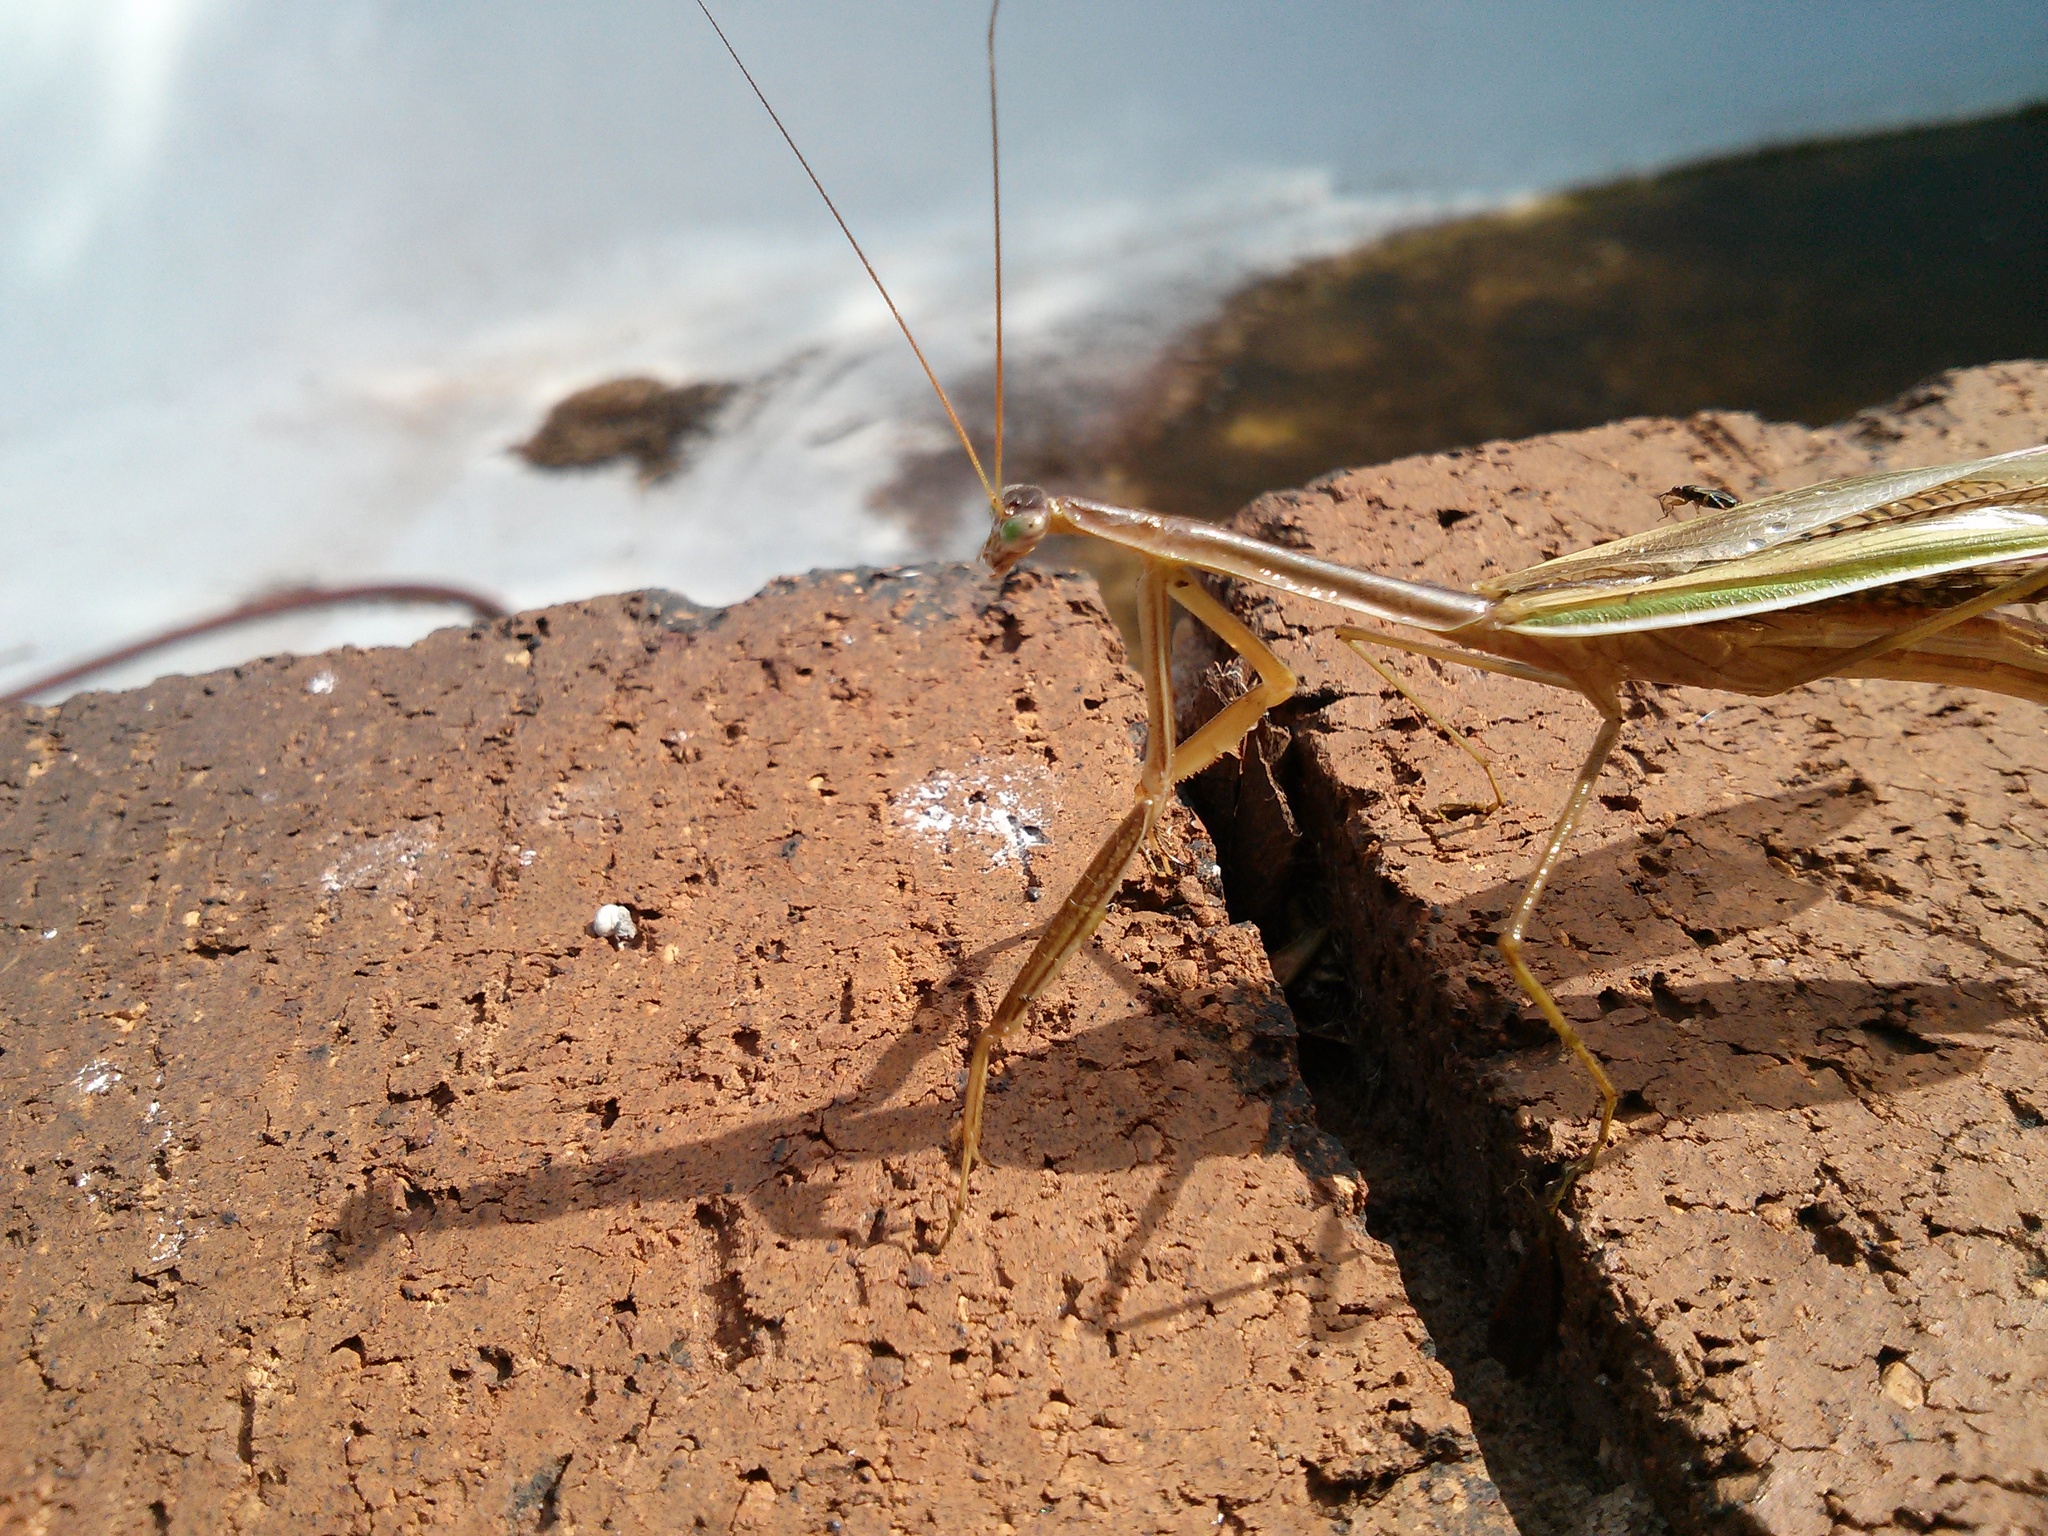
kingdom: Animalia
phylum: Arthropoda
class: Insecta
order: Mantodea
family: Mantidae
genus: Tenodera
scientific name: Tenodera australasiae
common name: Purple-winged mantis
